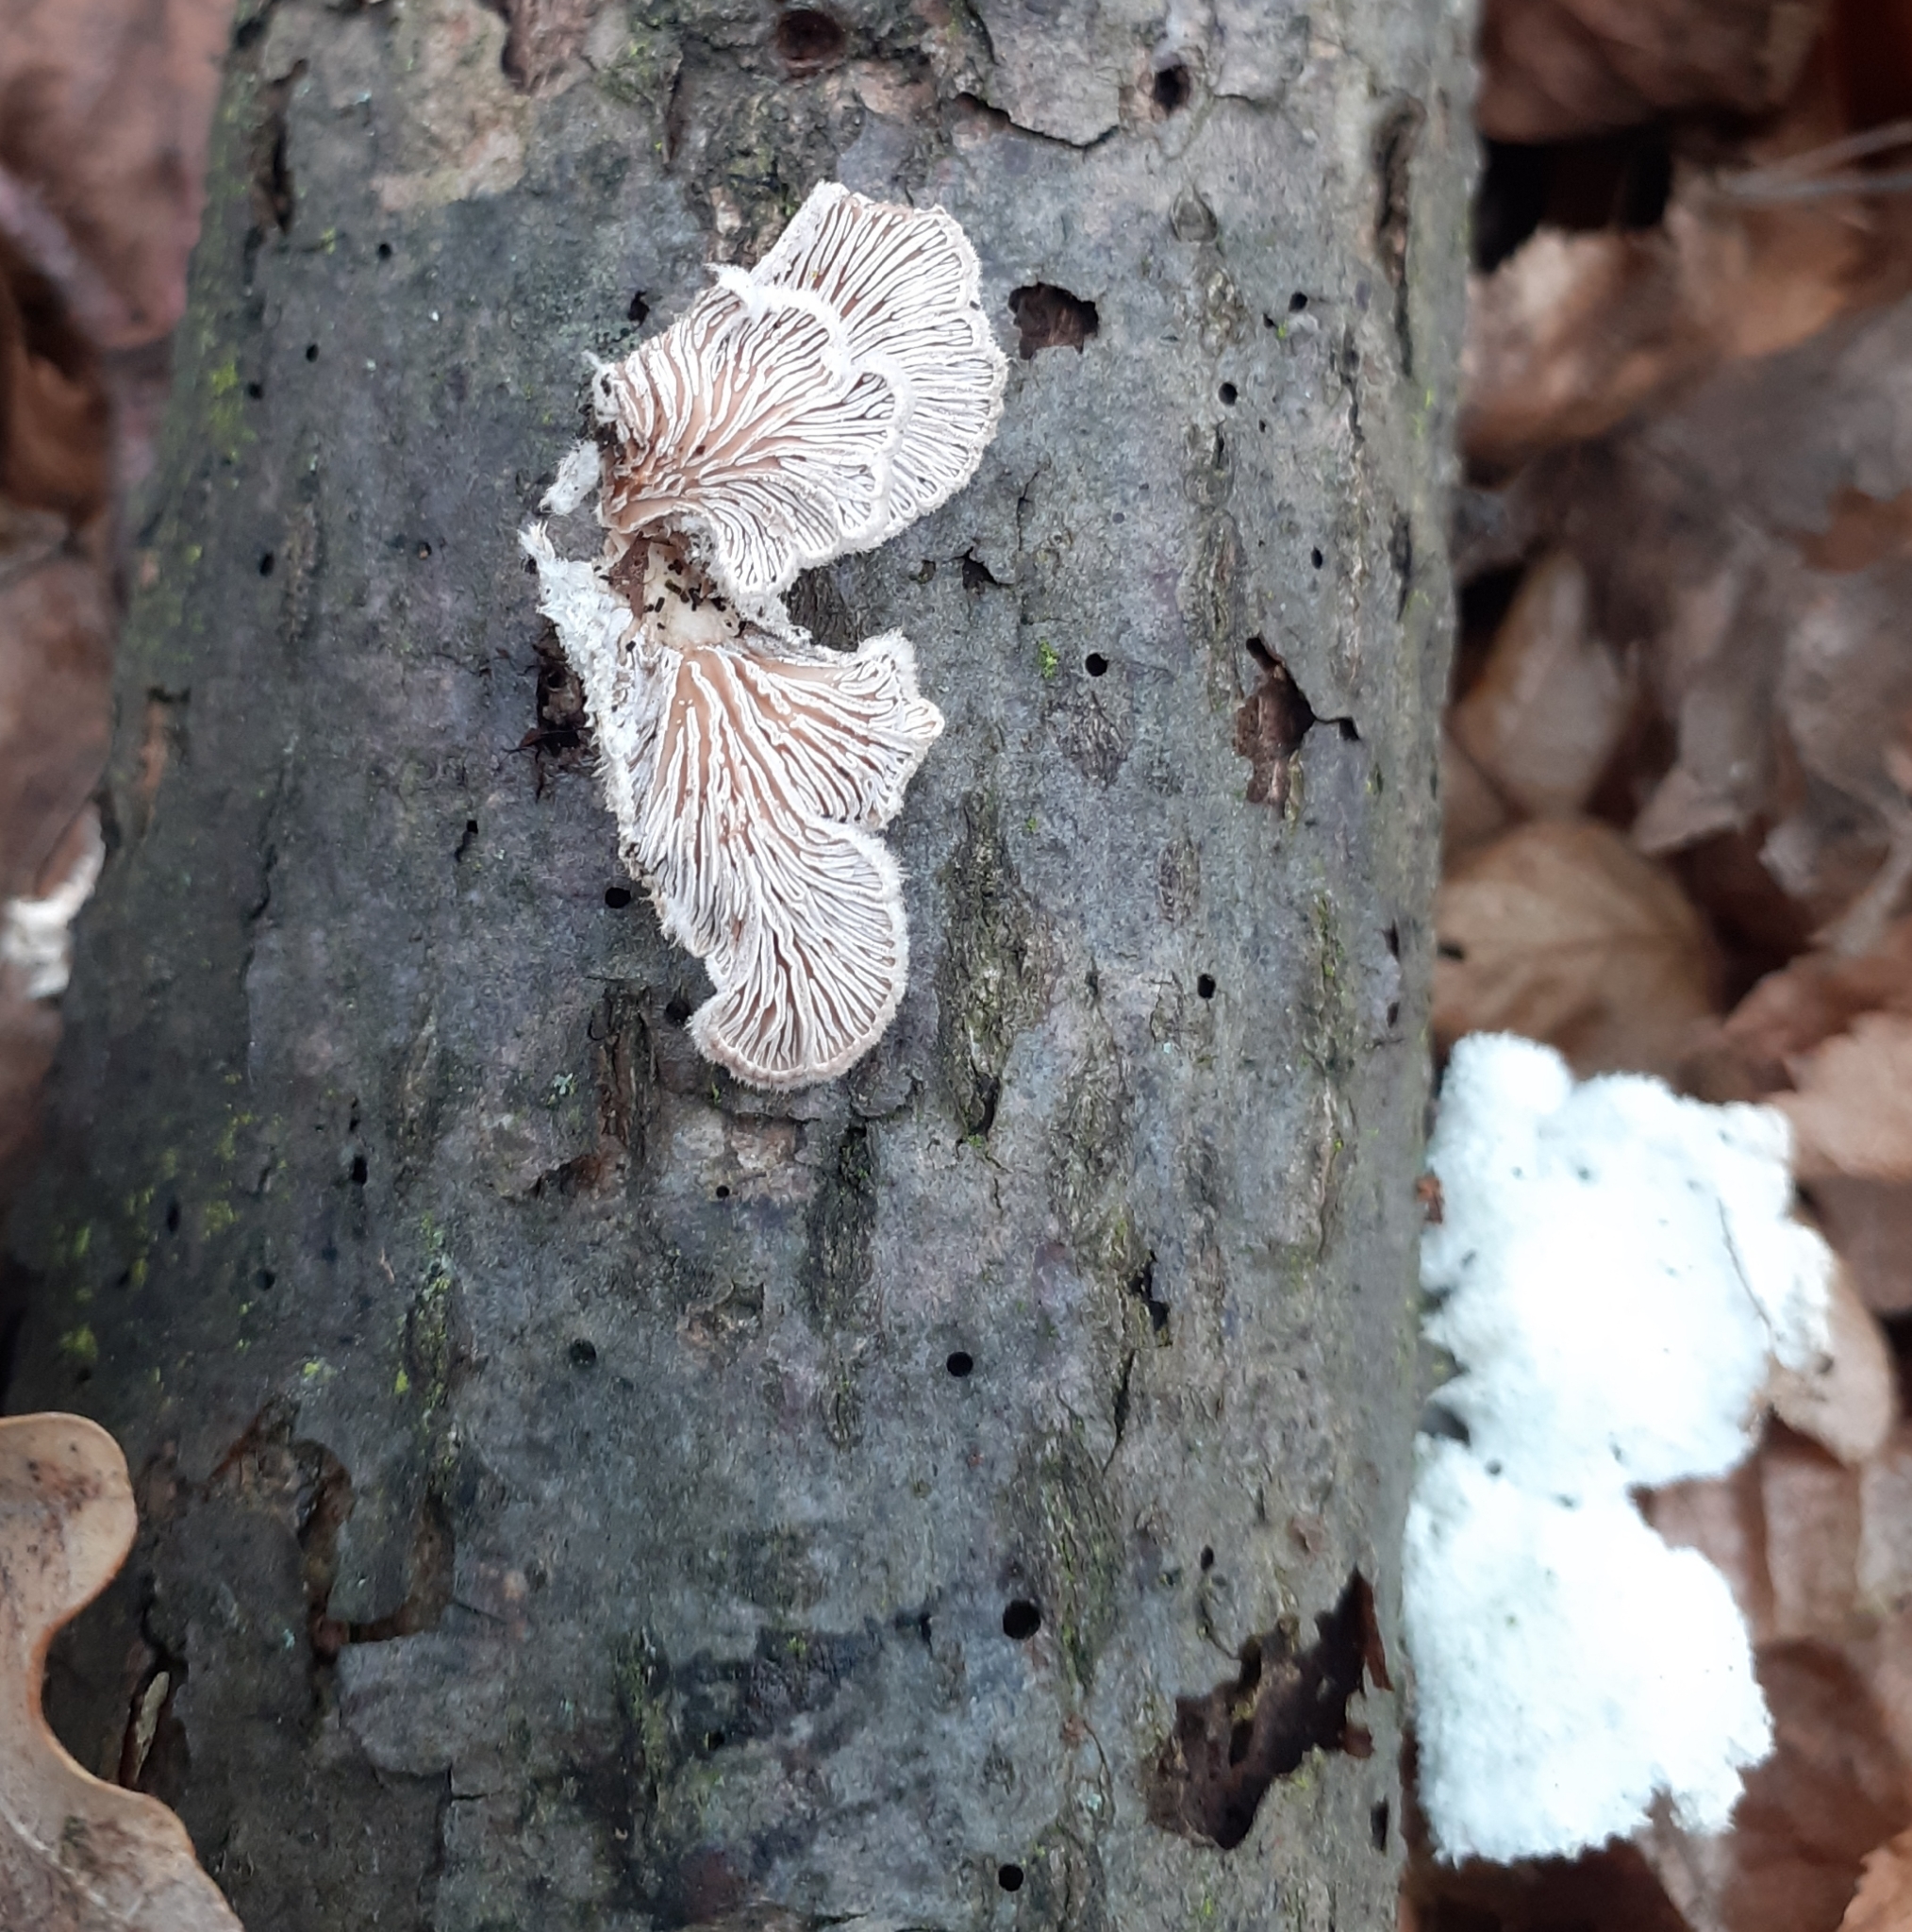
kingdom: Fungi
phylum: Basidiomycota
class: Agaricomycetes
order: Agaricales
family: Schizophyllaceae
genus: Schizophyllum
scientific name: Schizophyllum commune
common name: Common porecrust
